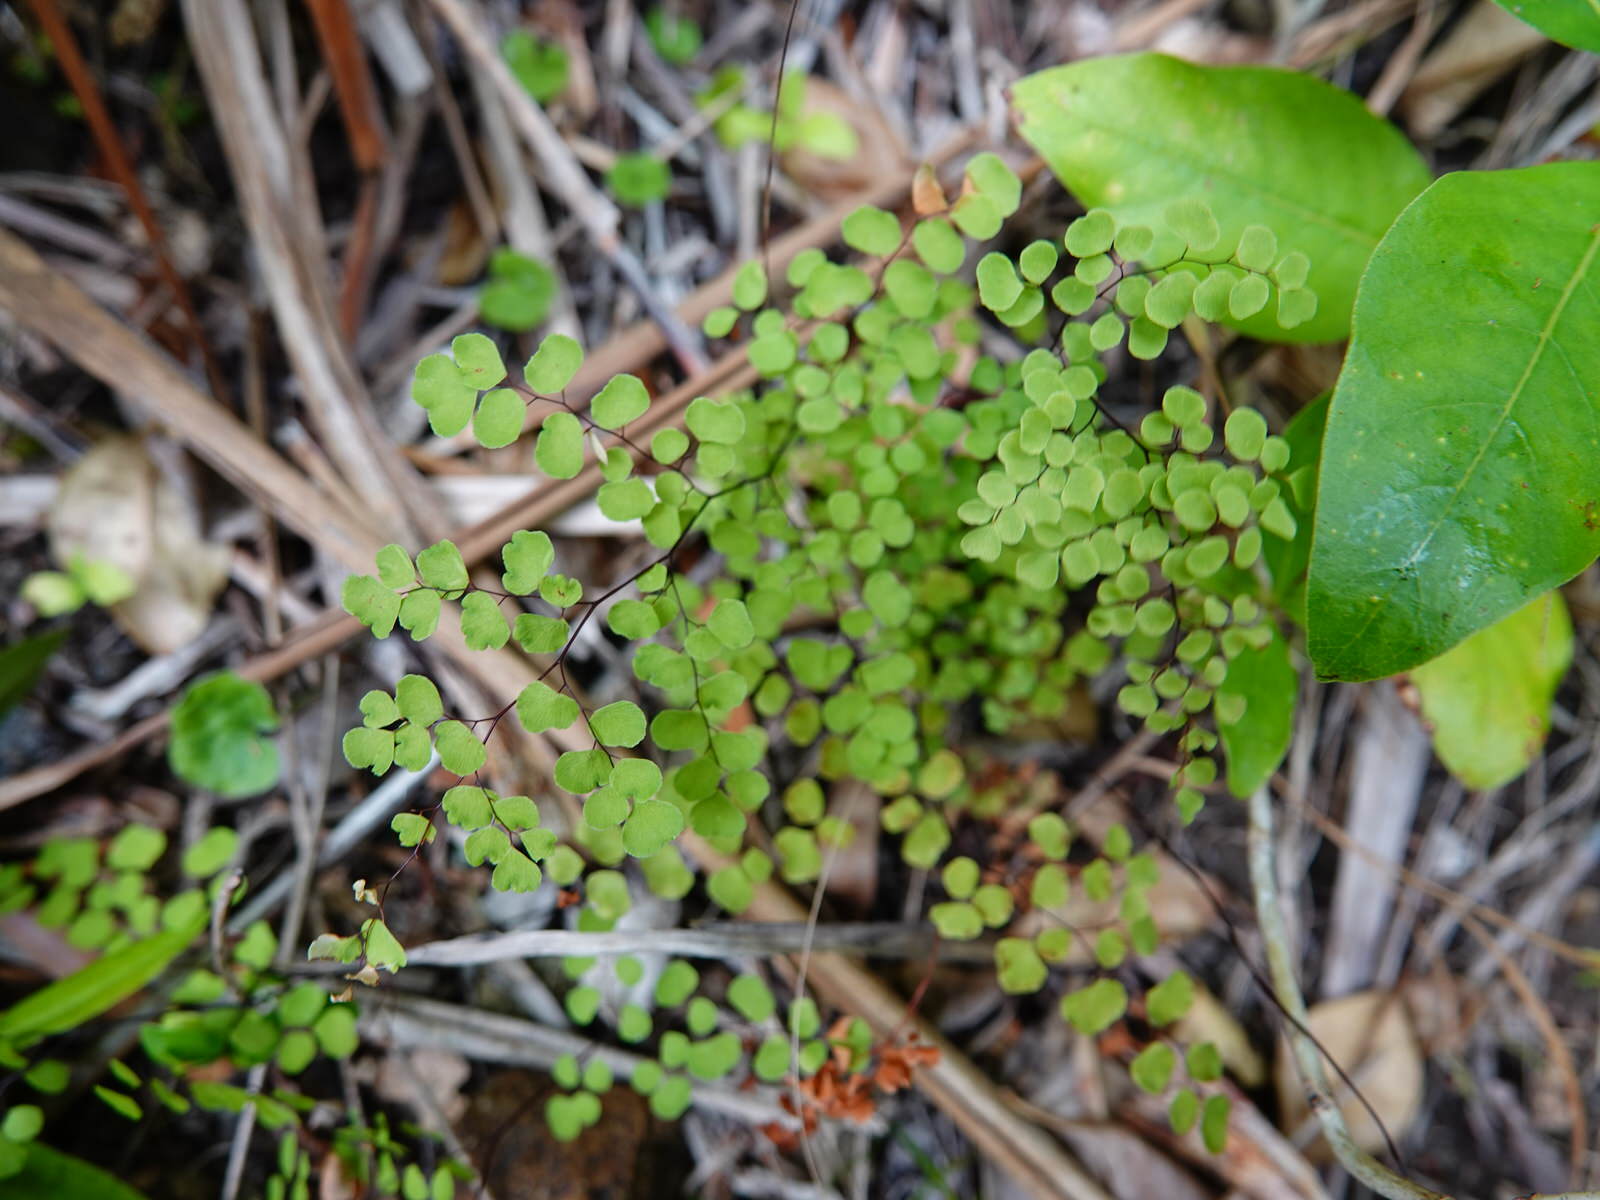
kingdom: Plantae
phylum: Tracheophyta
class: Polypodiopsida
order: Polypodiales
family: Pteridaceae
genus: Adiantum
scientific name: Adiantum aethiopicum
